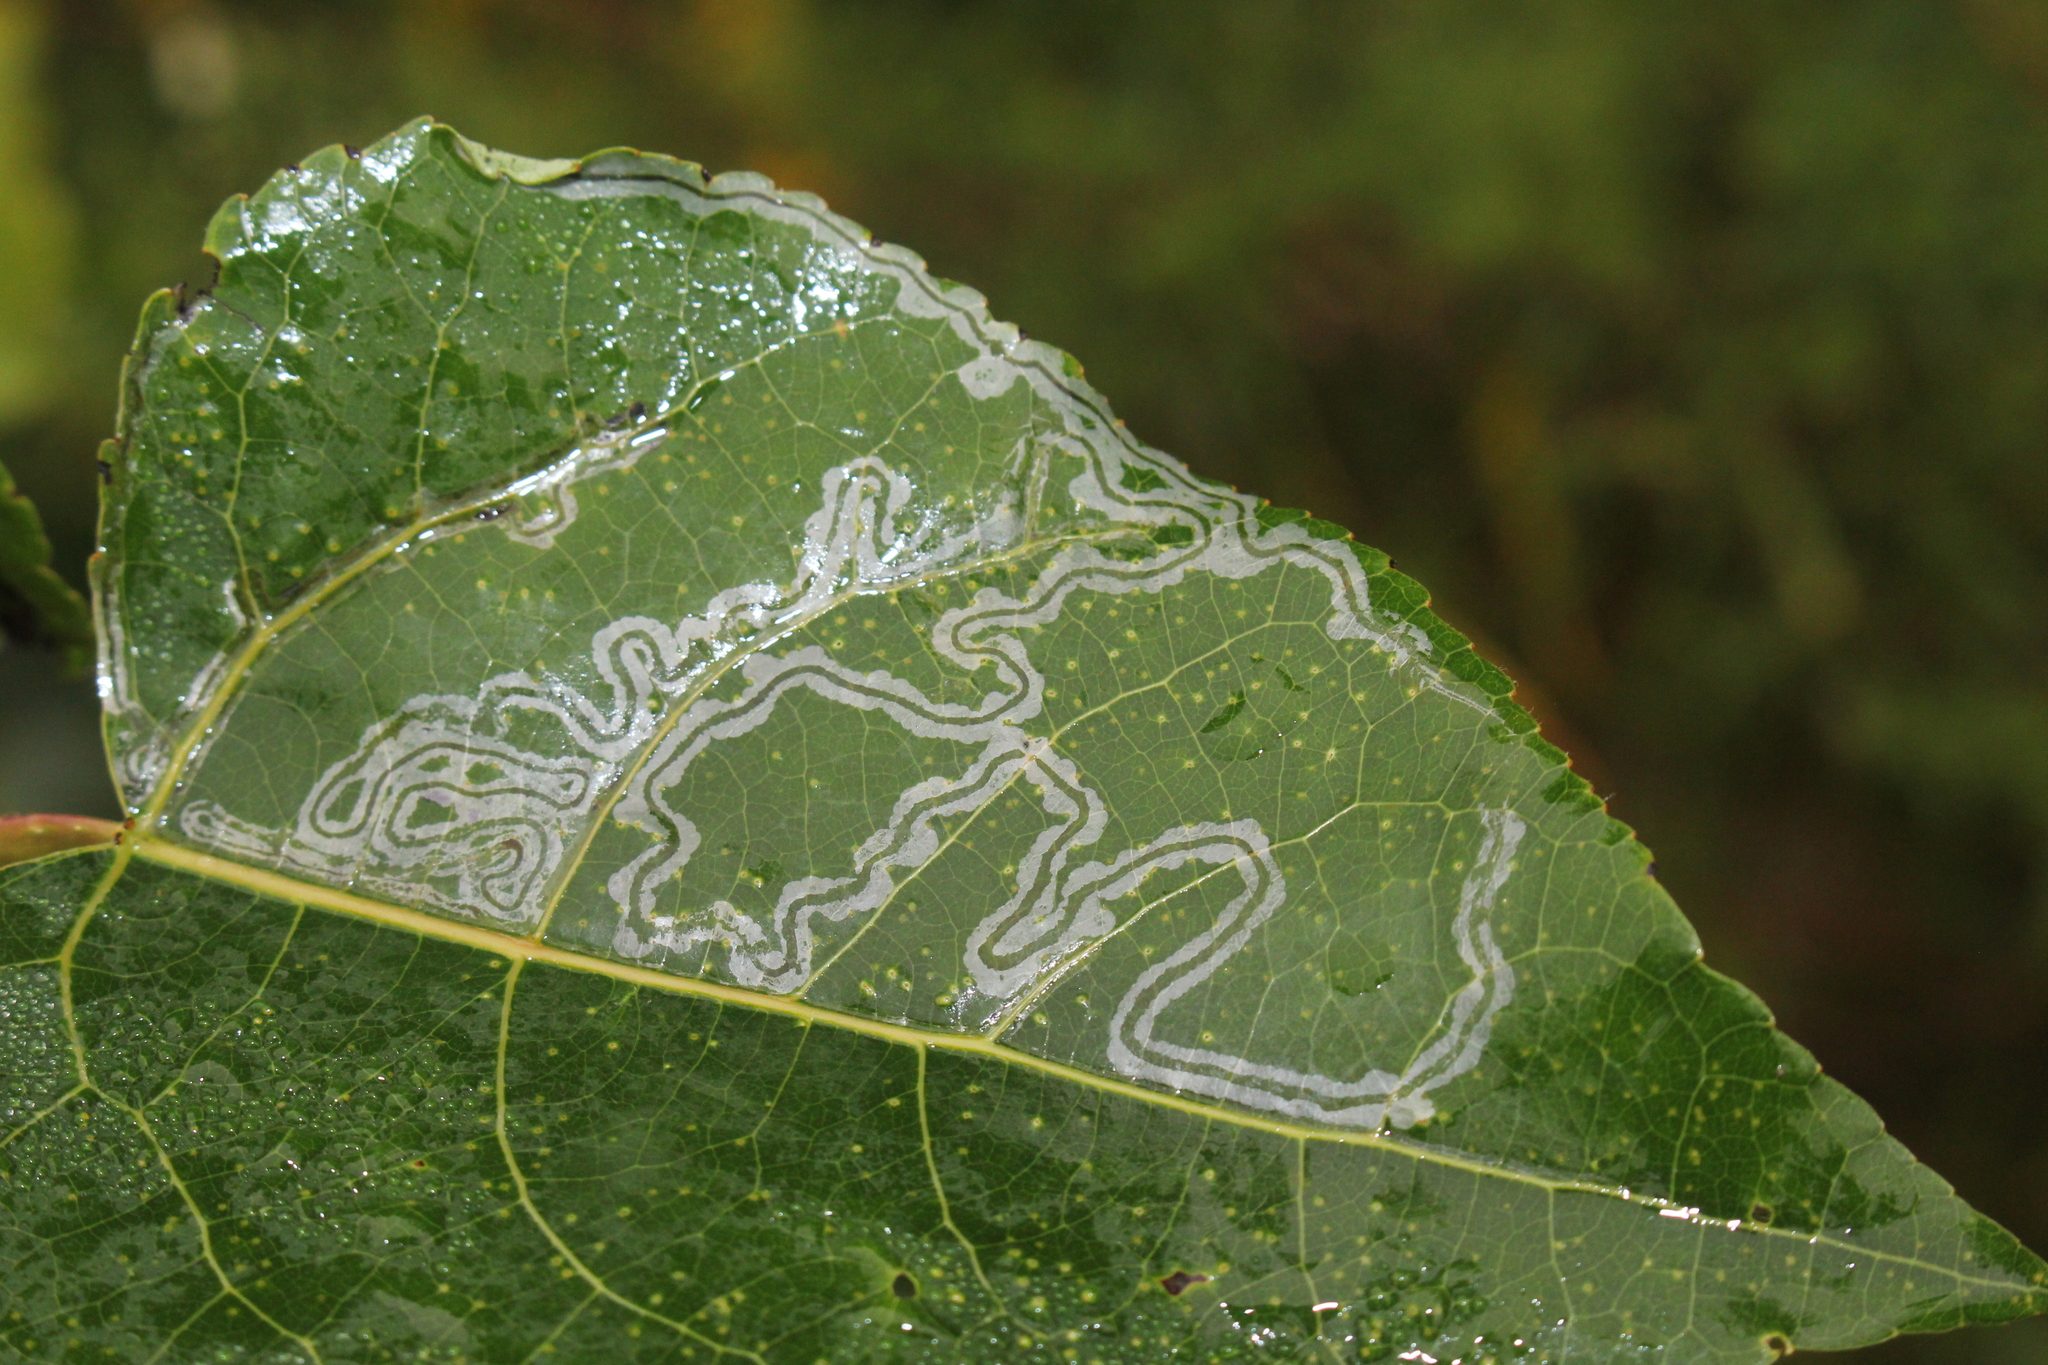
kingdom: Animalia
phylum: Arthropoda
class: Insecta
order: Lepidoptera
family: Gracillariidae
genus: Phyllocnistis
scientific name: Phyllocnistis populiella
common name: Aspen serpentine leafminer moth
